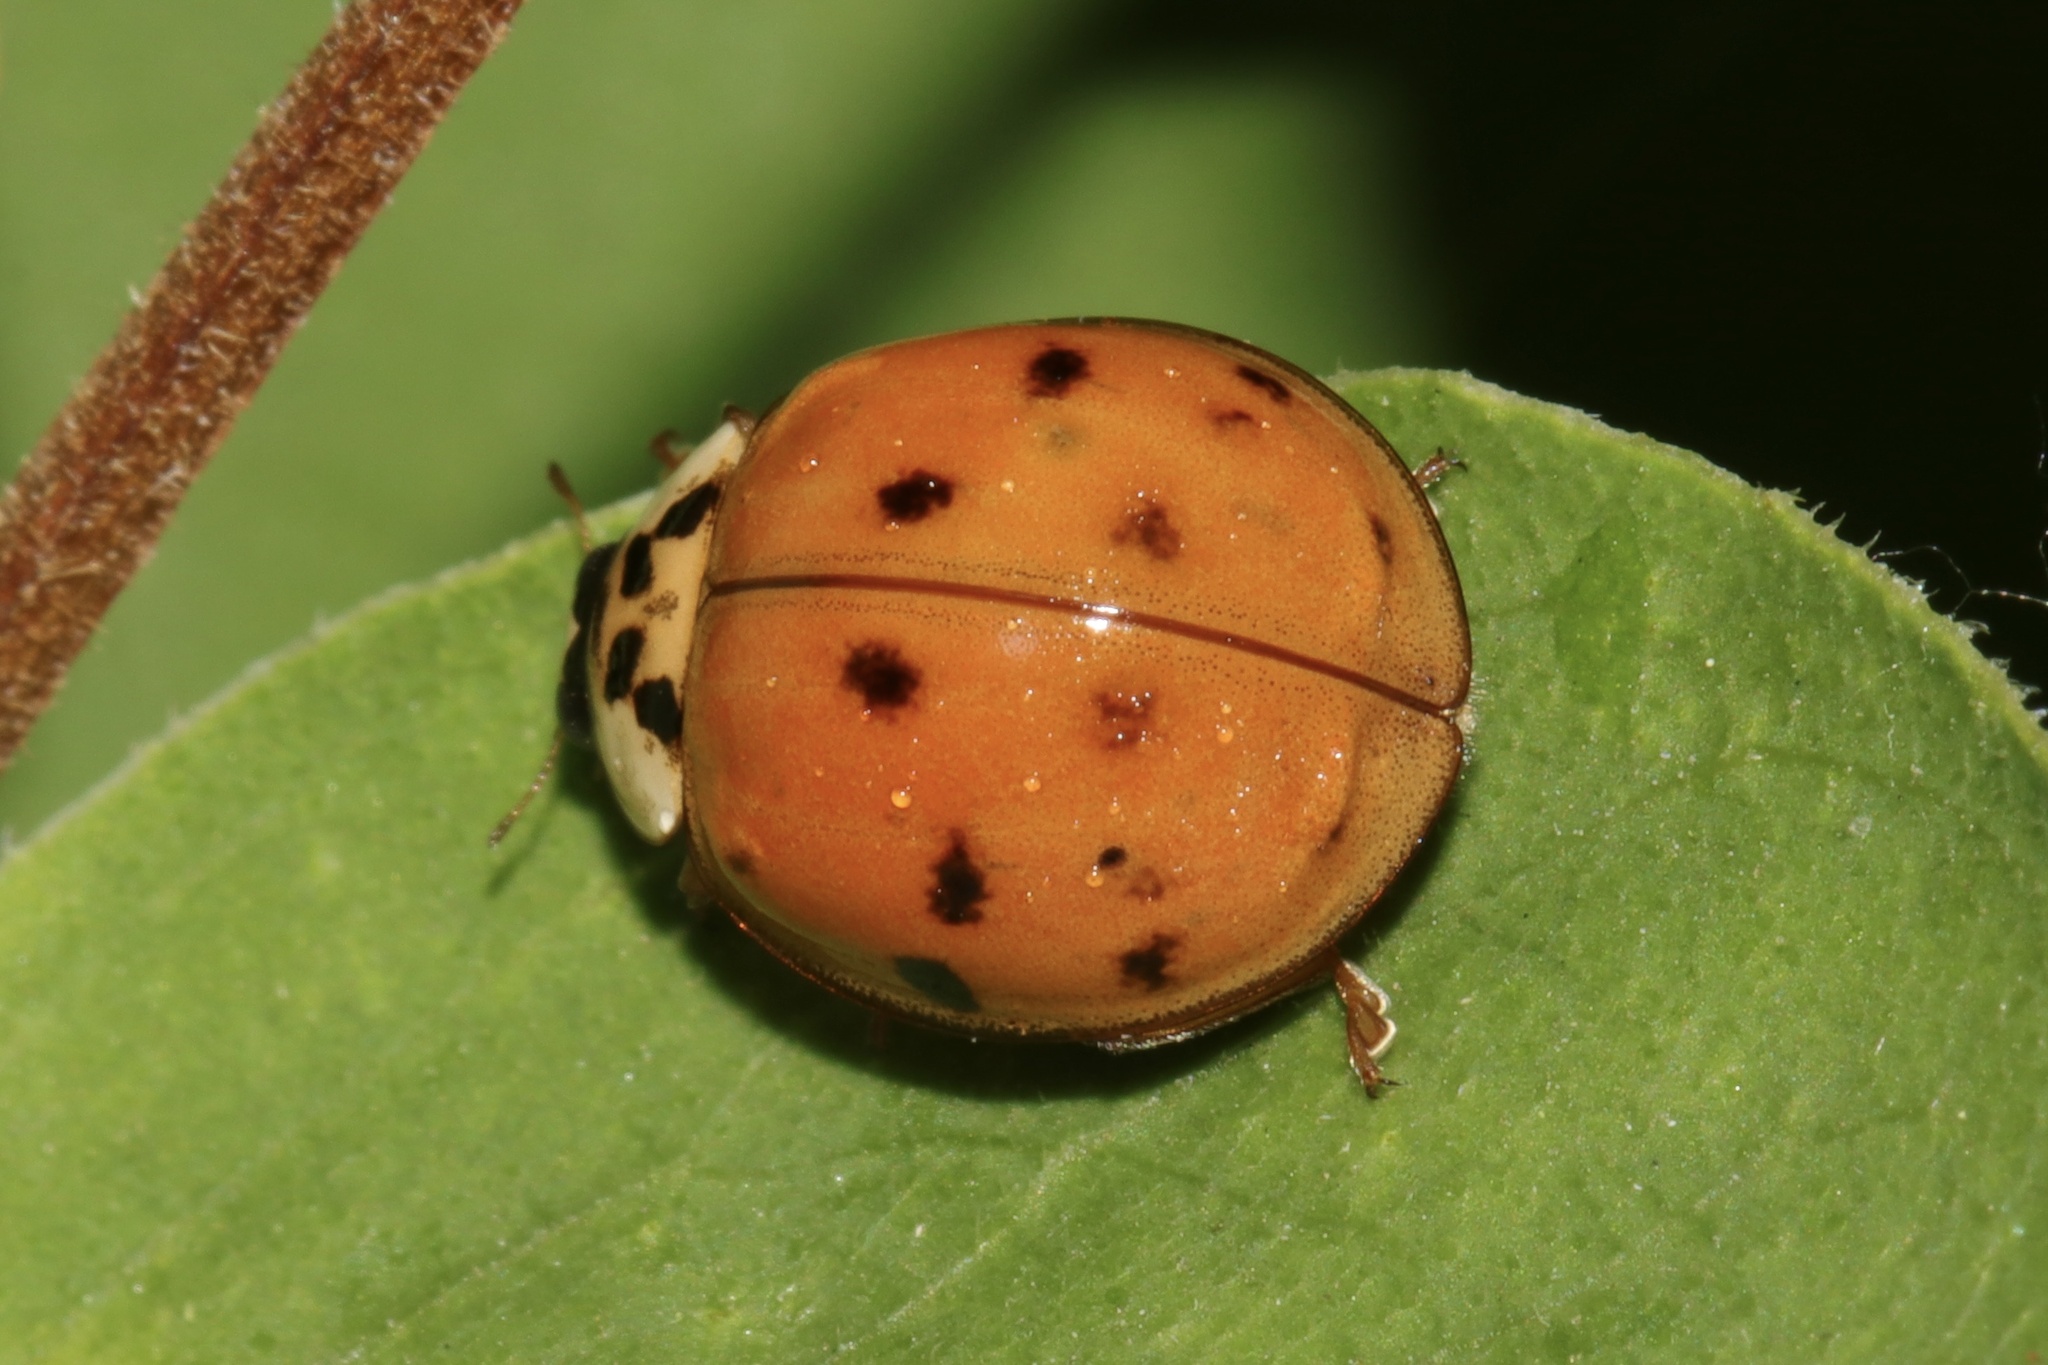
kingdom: Animalia
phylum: Arthropoda
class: Insecta
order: Coleoptera
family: Coccinellidae
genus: Harmonia
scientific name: Harmonia axyridis
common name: Harlequin ladybird
